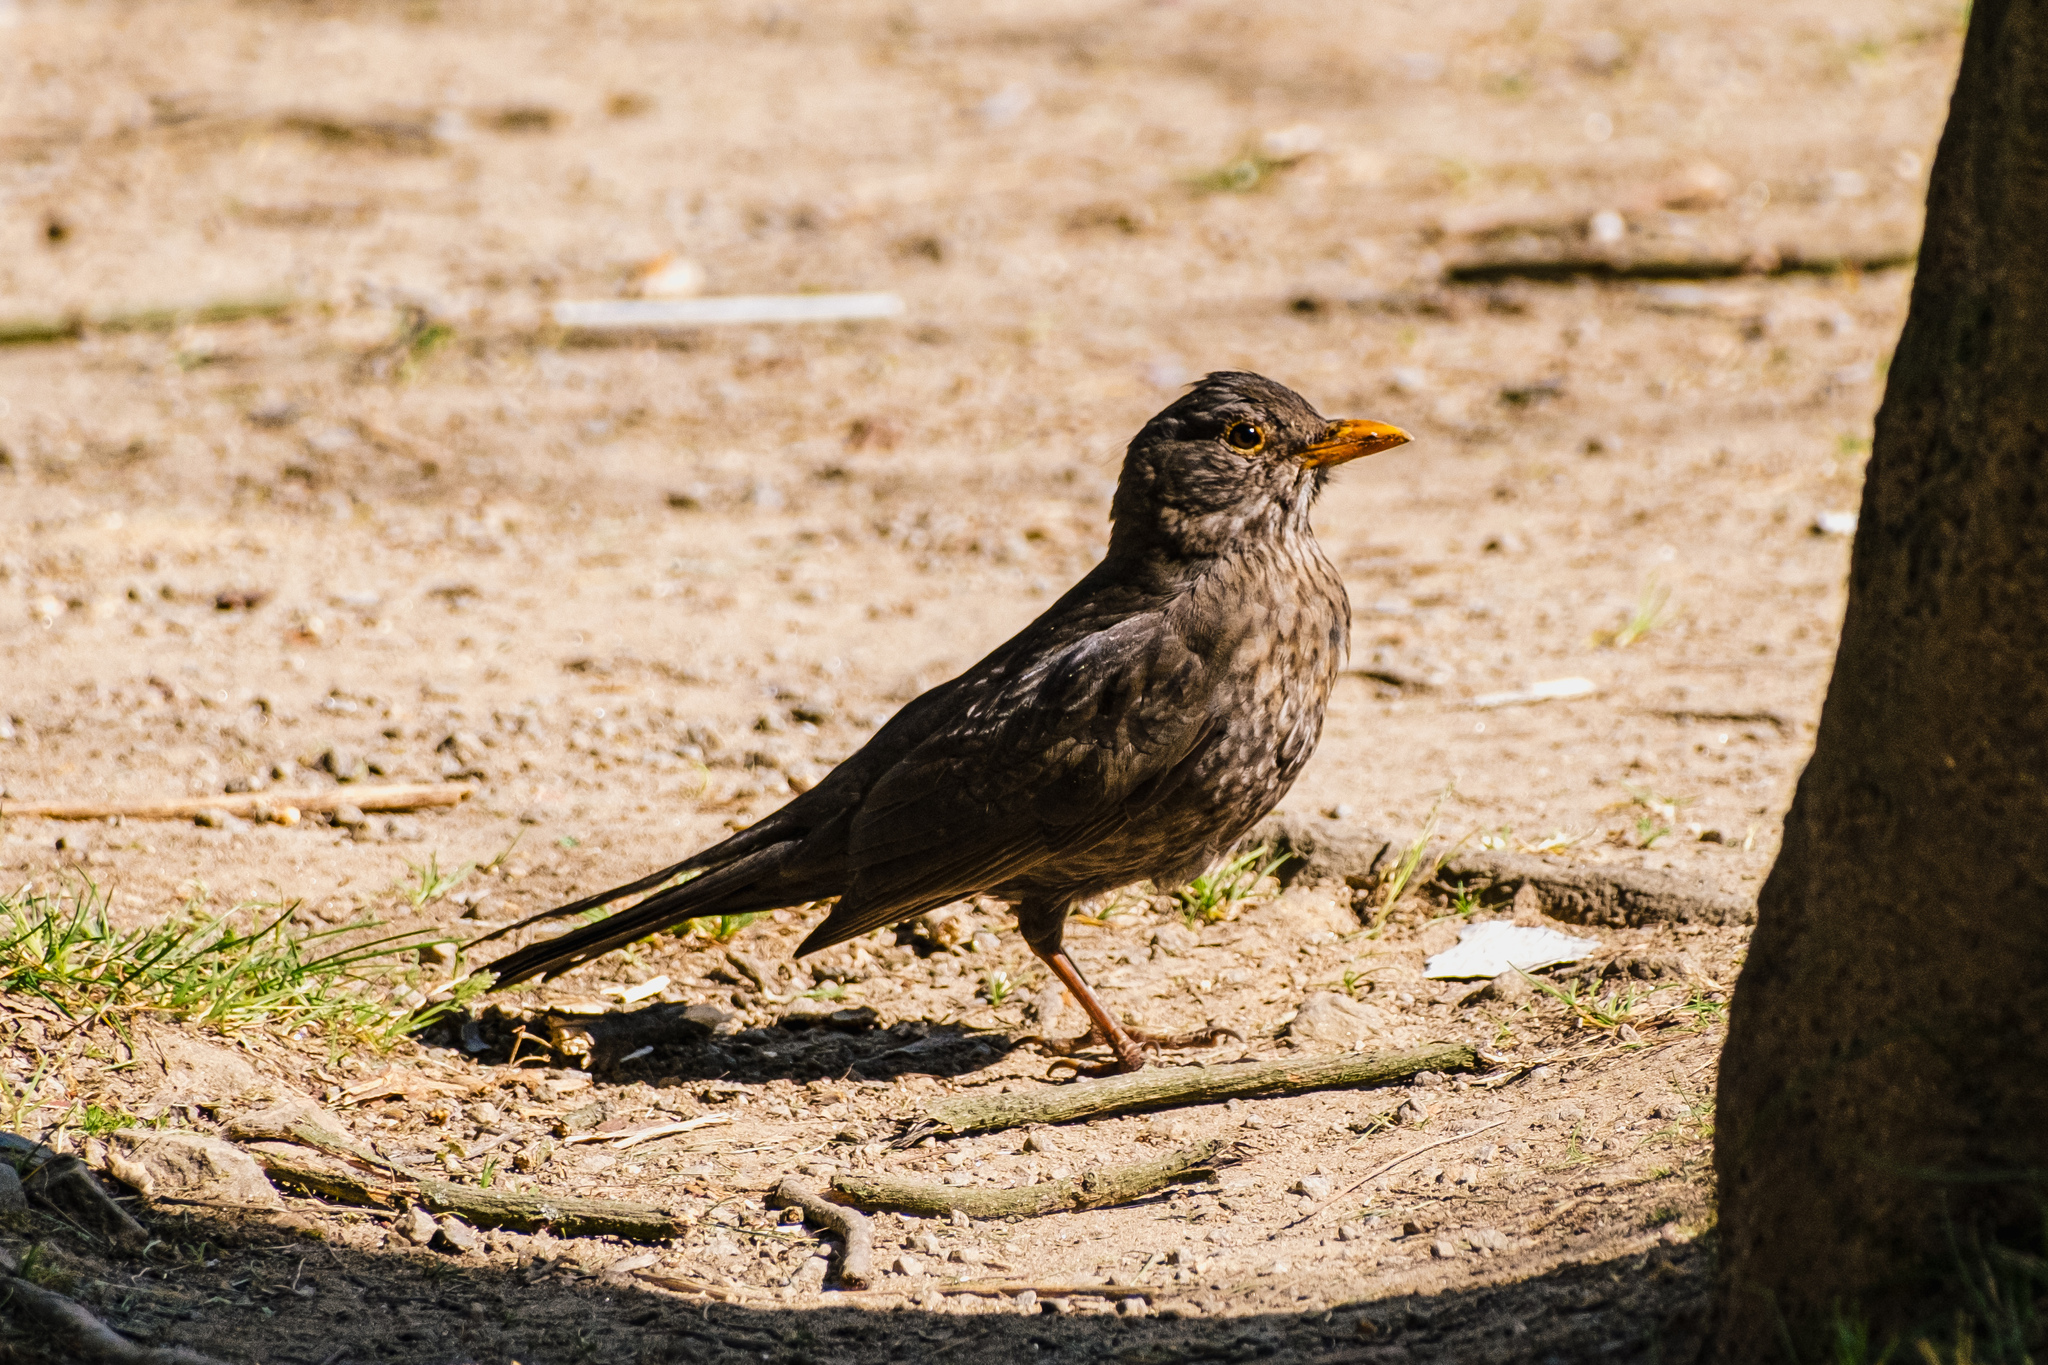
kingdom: Animalia
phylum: Chordata
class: Aves
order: Passeriformes
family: Turdidae
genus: Turdus
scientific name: Turdus merula
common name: Common blackbird
